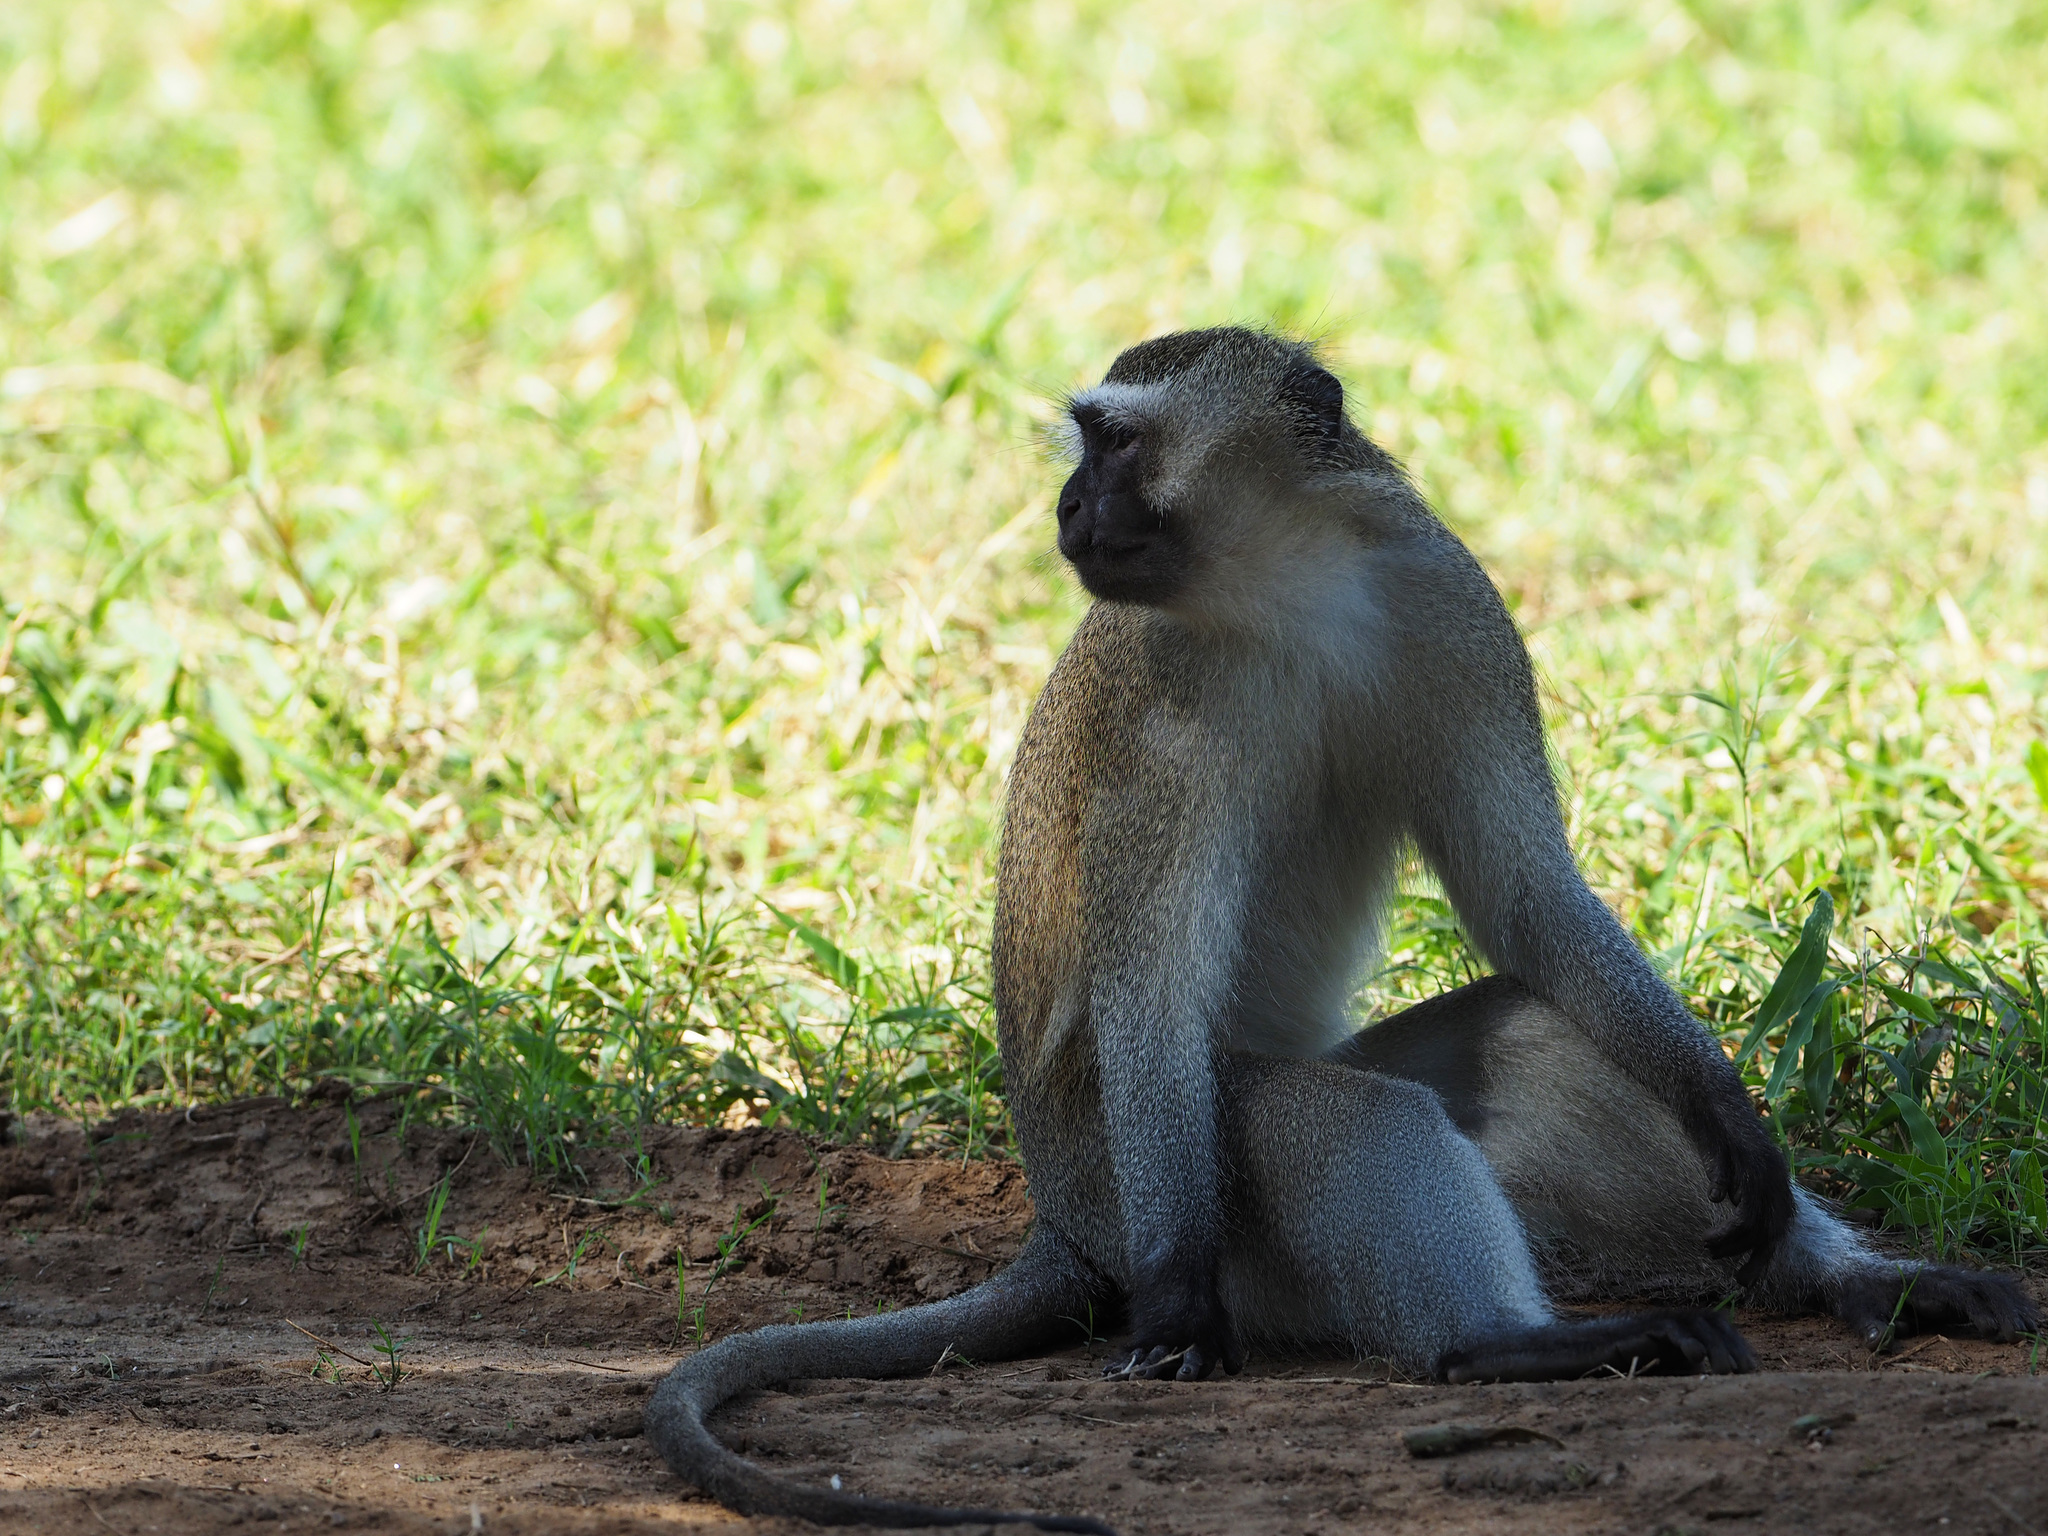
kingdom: Animalia
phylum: Chordata
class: Mammalia
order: Primates
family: Cercopithecidae
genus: Chlorocebus
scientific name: Chlorocebus pygerythrus
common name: Vervet monkey
